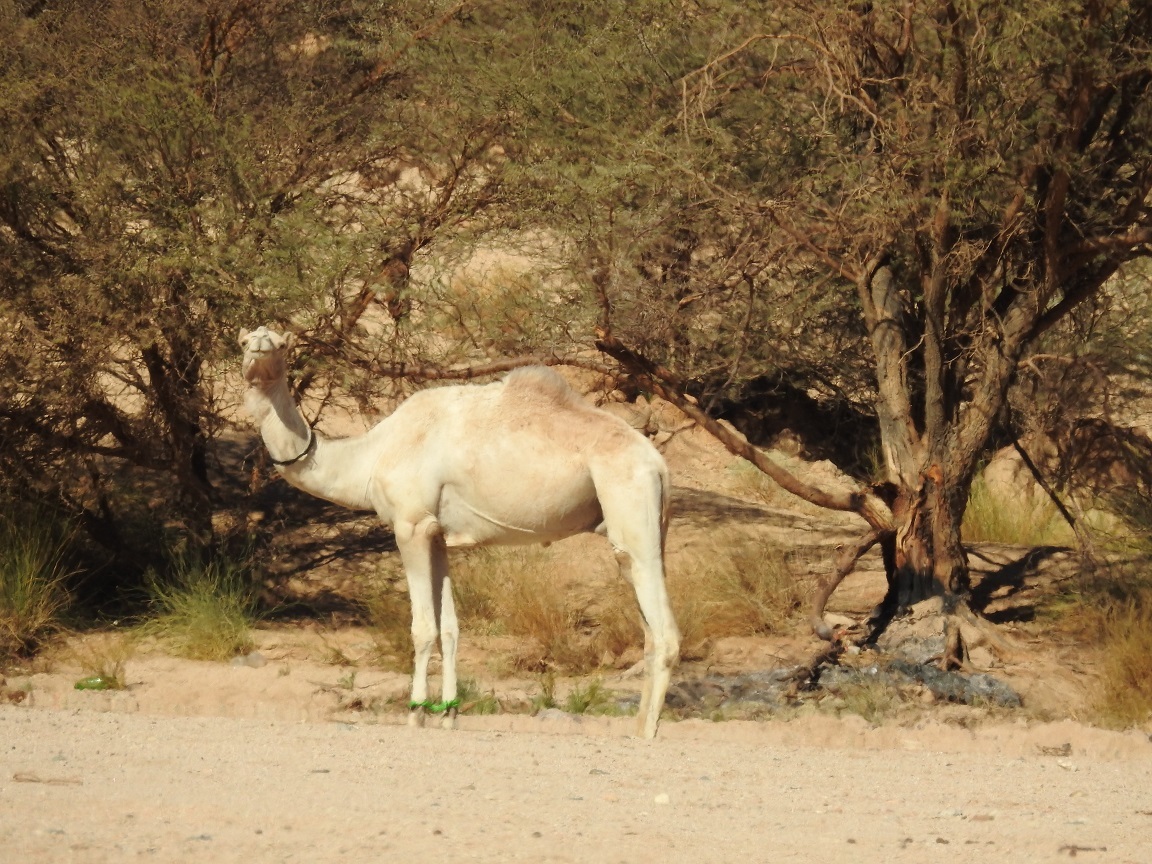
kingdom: Animalia
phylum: Chordata
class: Mammalia
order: Artiodactyla
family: Camelidae
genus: Camelus
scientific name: Camelus dromedarius
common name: One-humped camel
